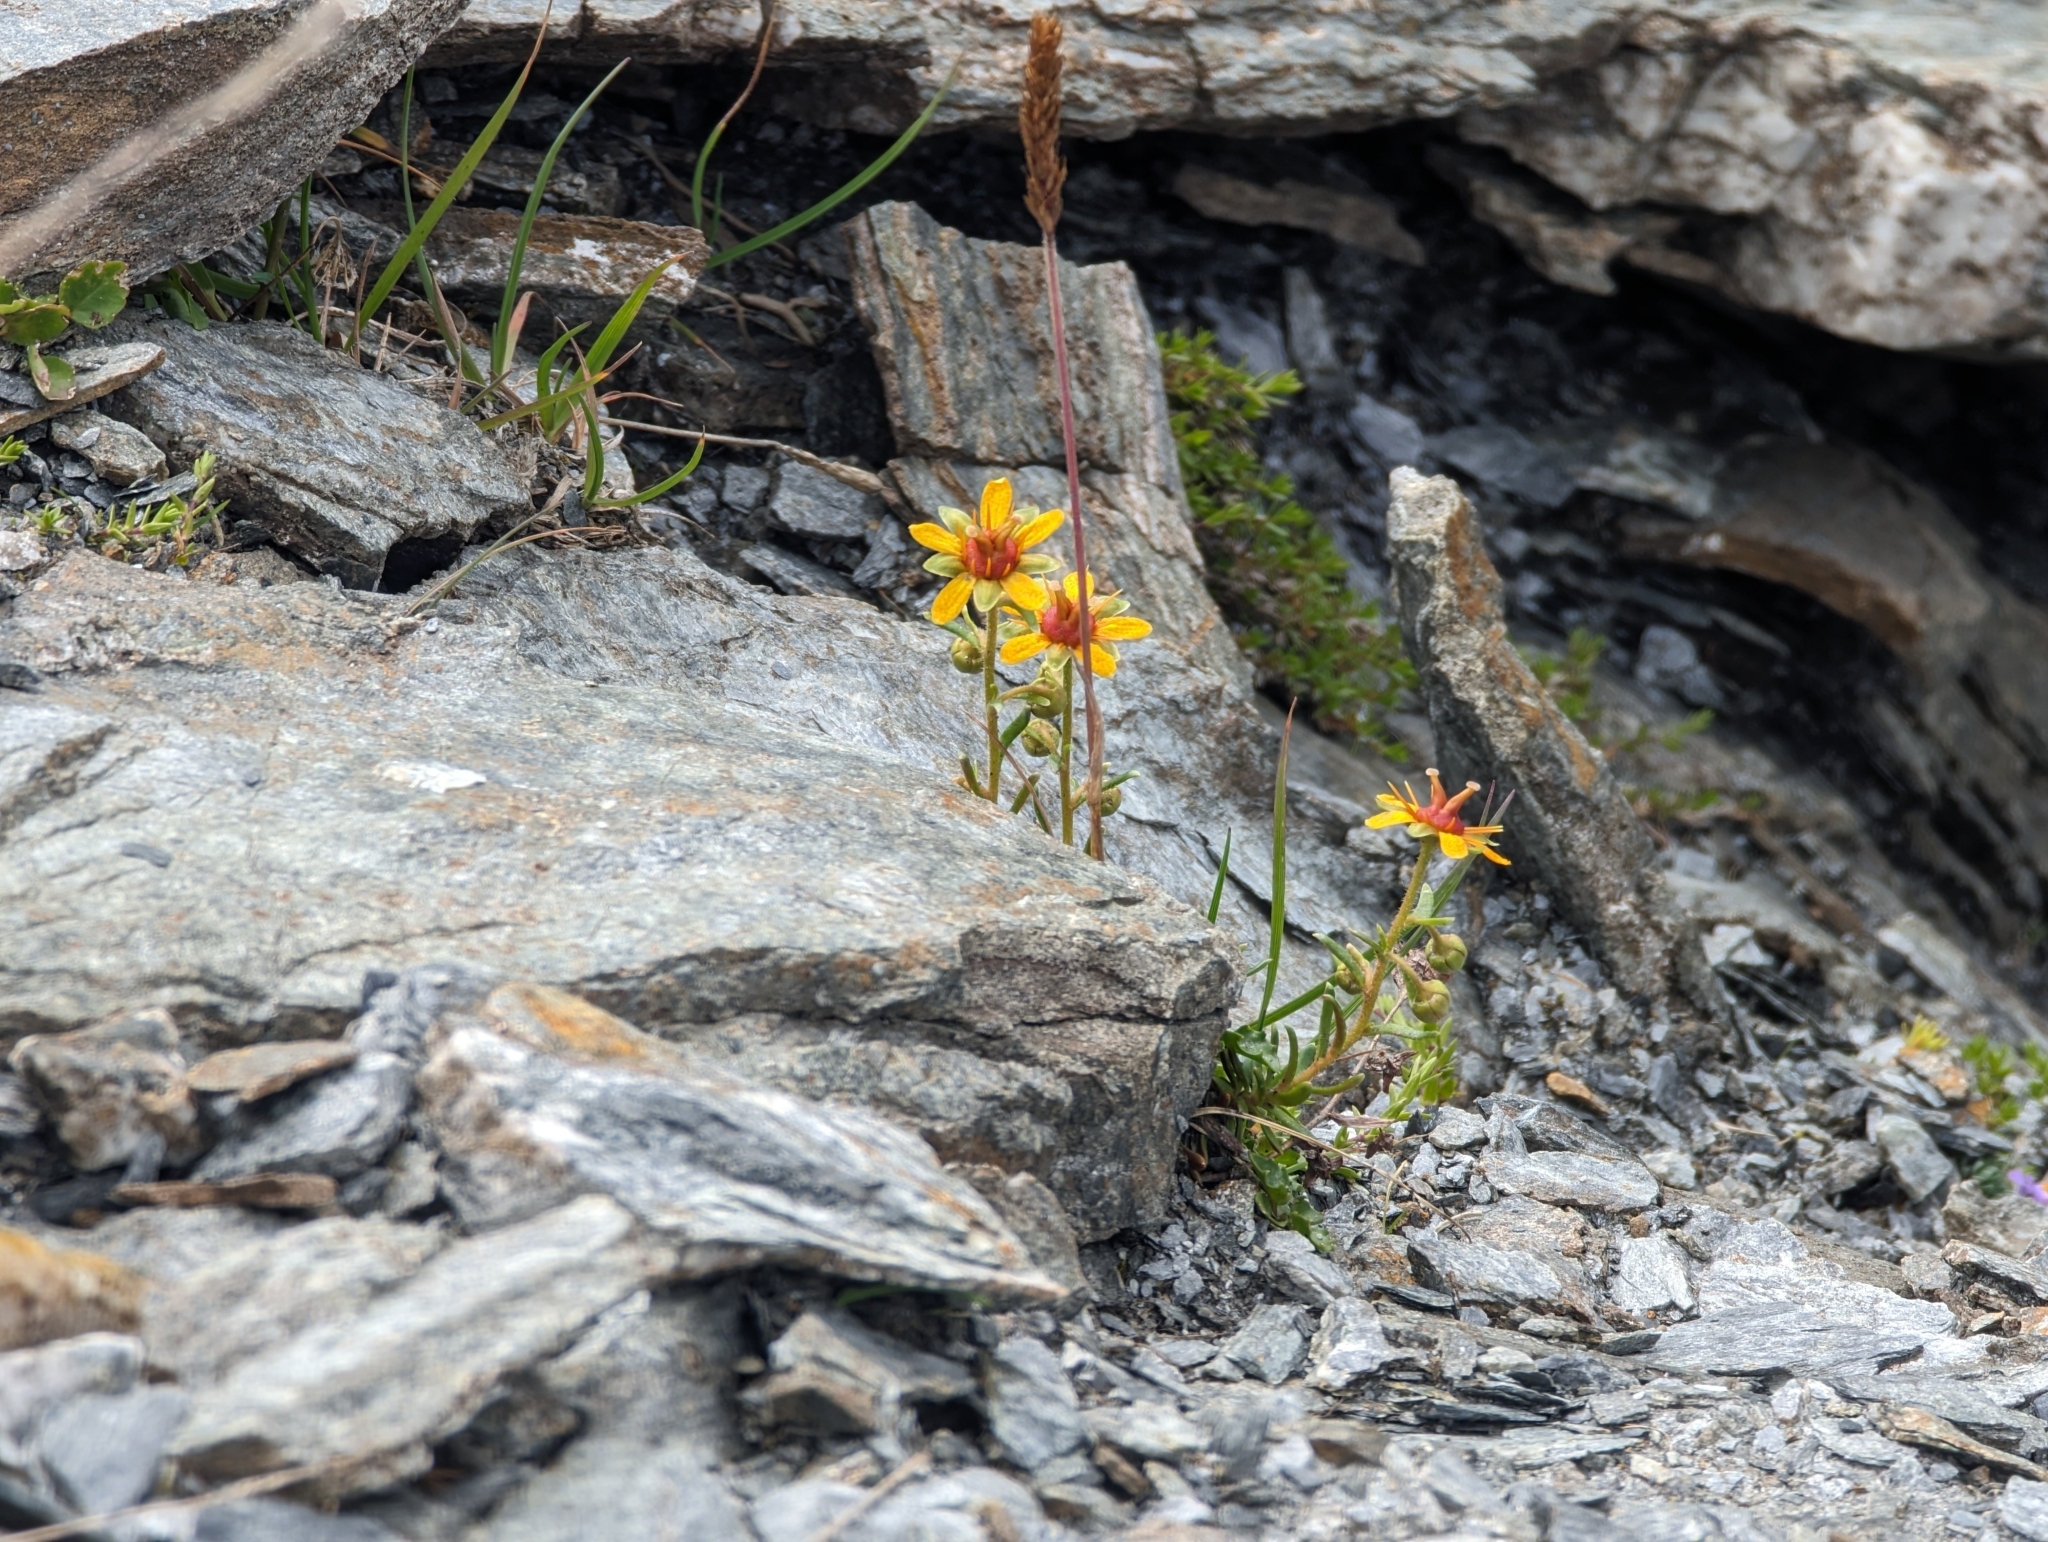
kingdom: Plantae
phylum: Tracheophyta
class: Magnoliopsida
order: Saxifragales
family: Saxifragaceae
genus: Saxifraga
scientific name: Saxifraga aizoides
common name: Yellow mountain saxifrage
